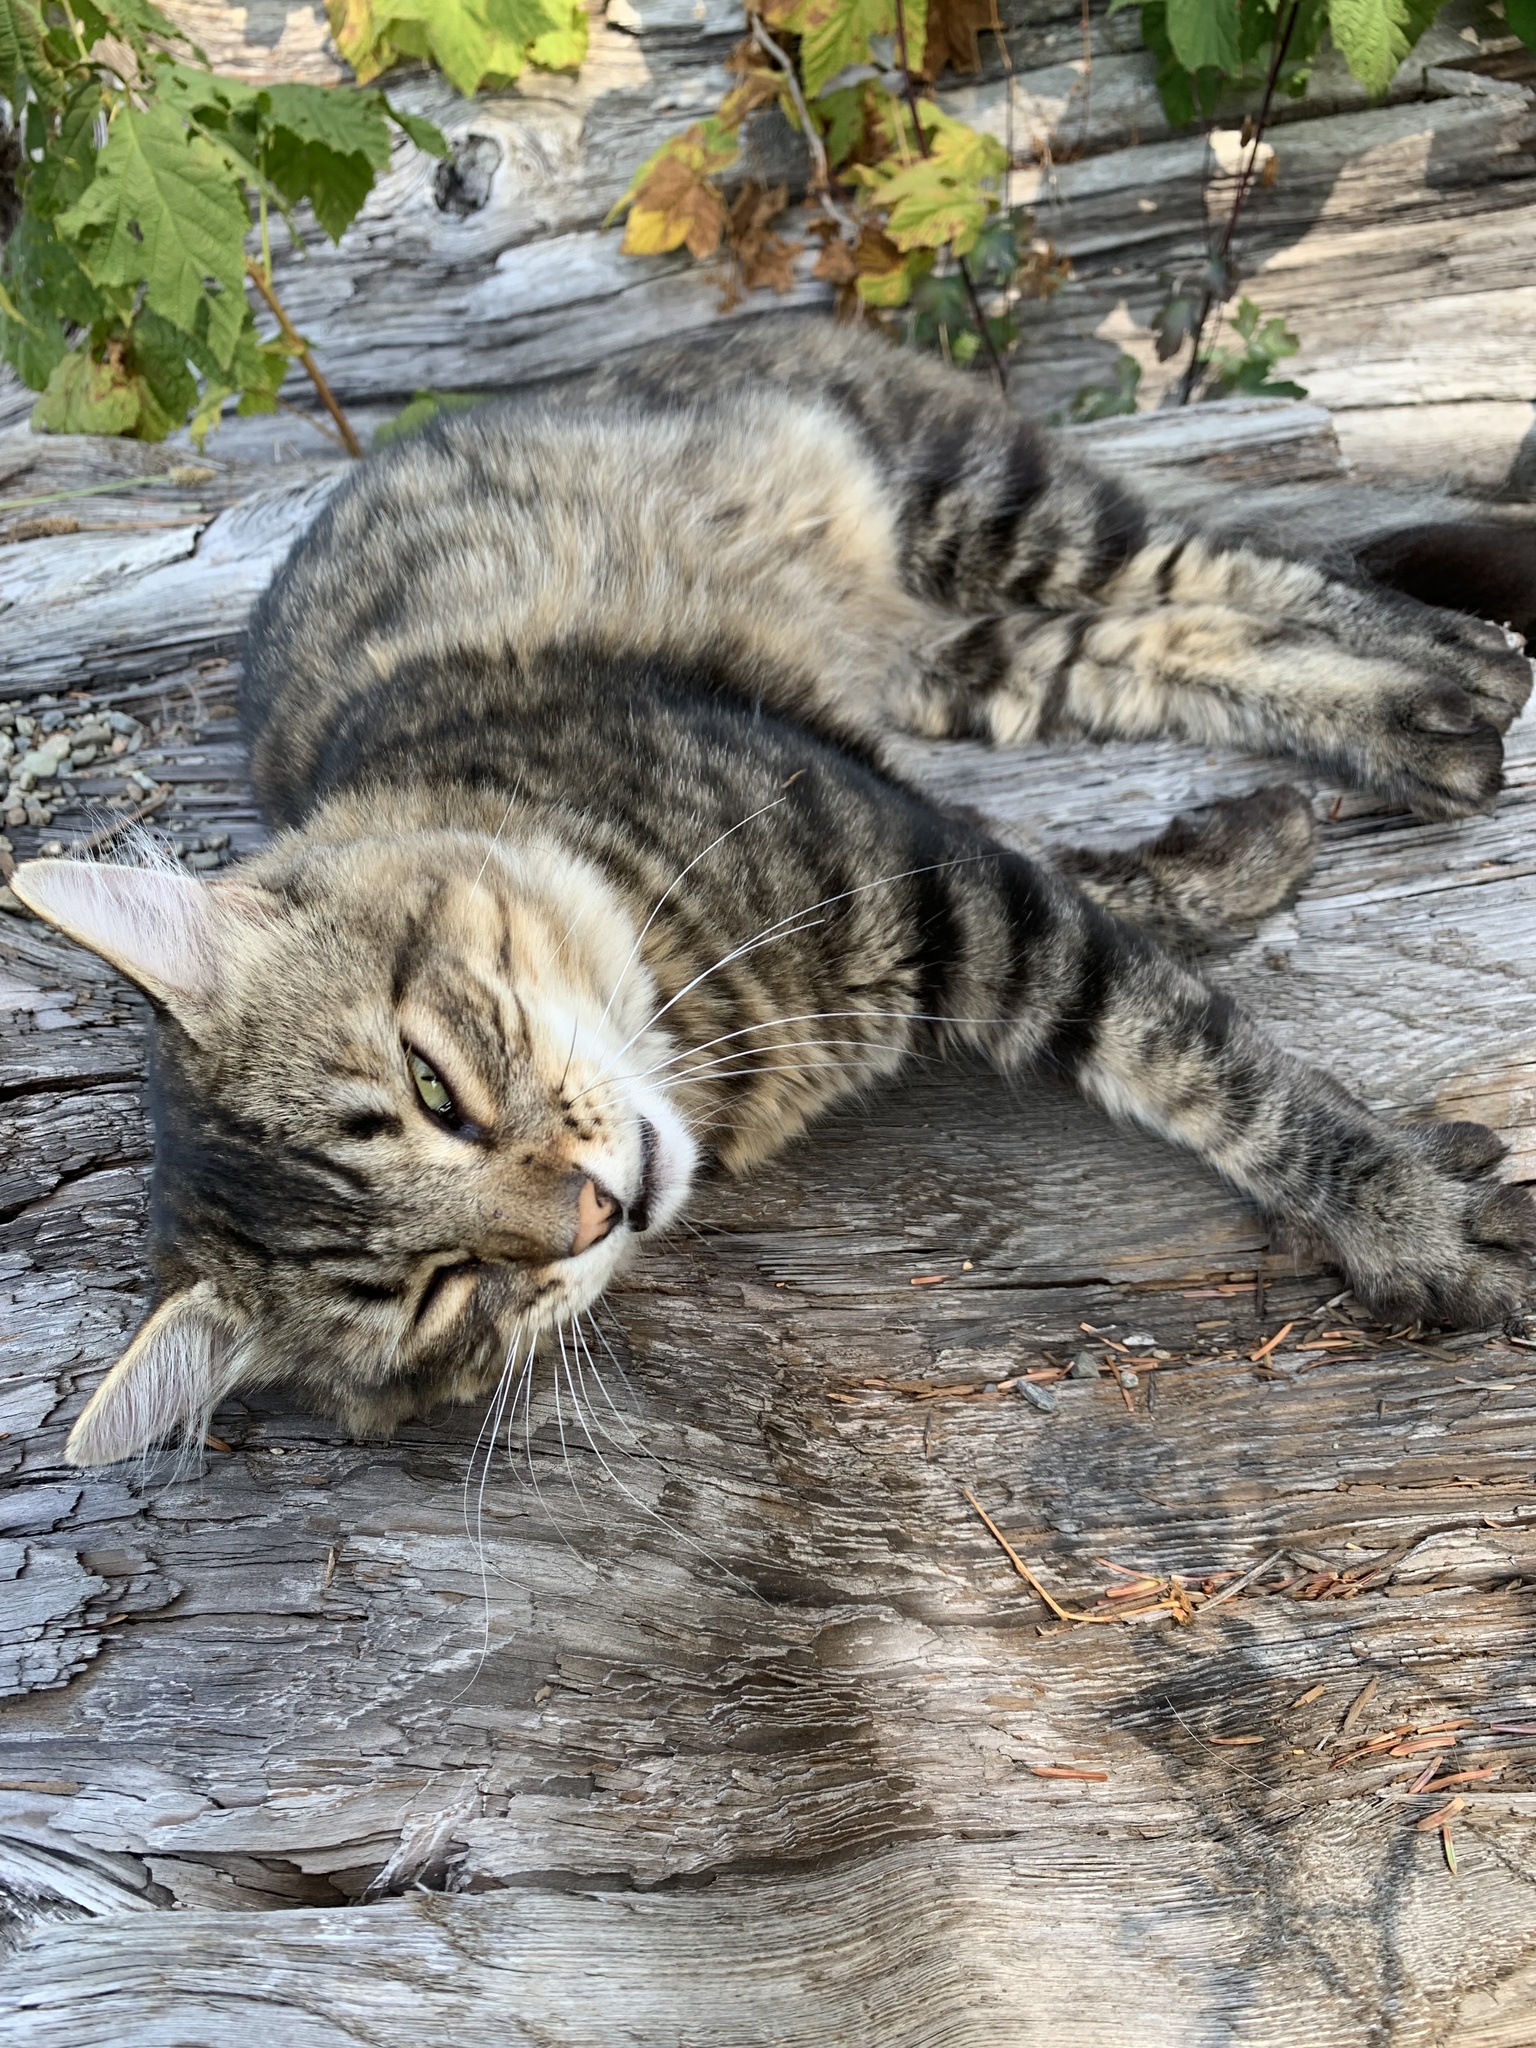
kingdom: Animalia
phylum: Chordata
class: Mammalia
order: Carnivora
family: Felidae
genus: Felis
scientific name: Felis catus
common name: Domestic cat
